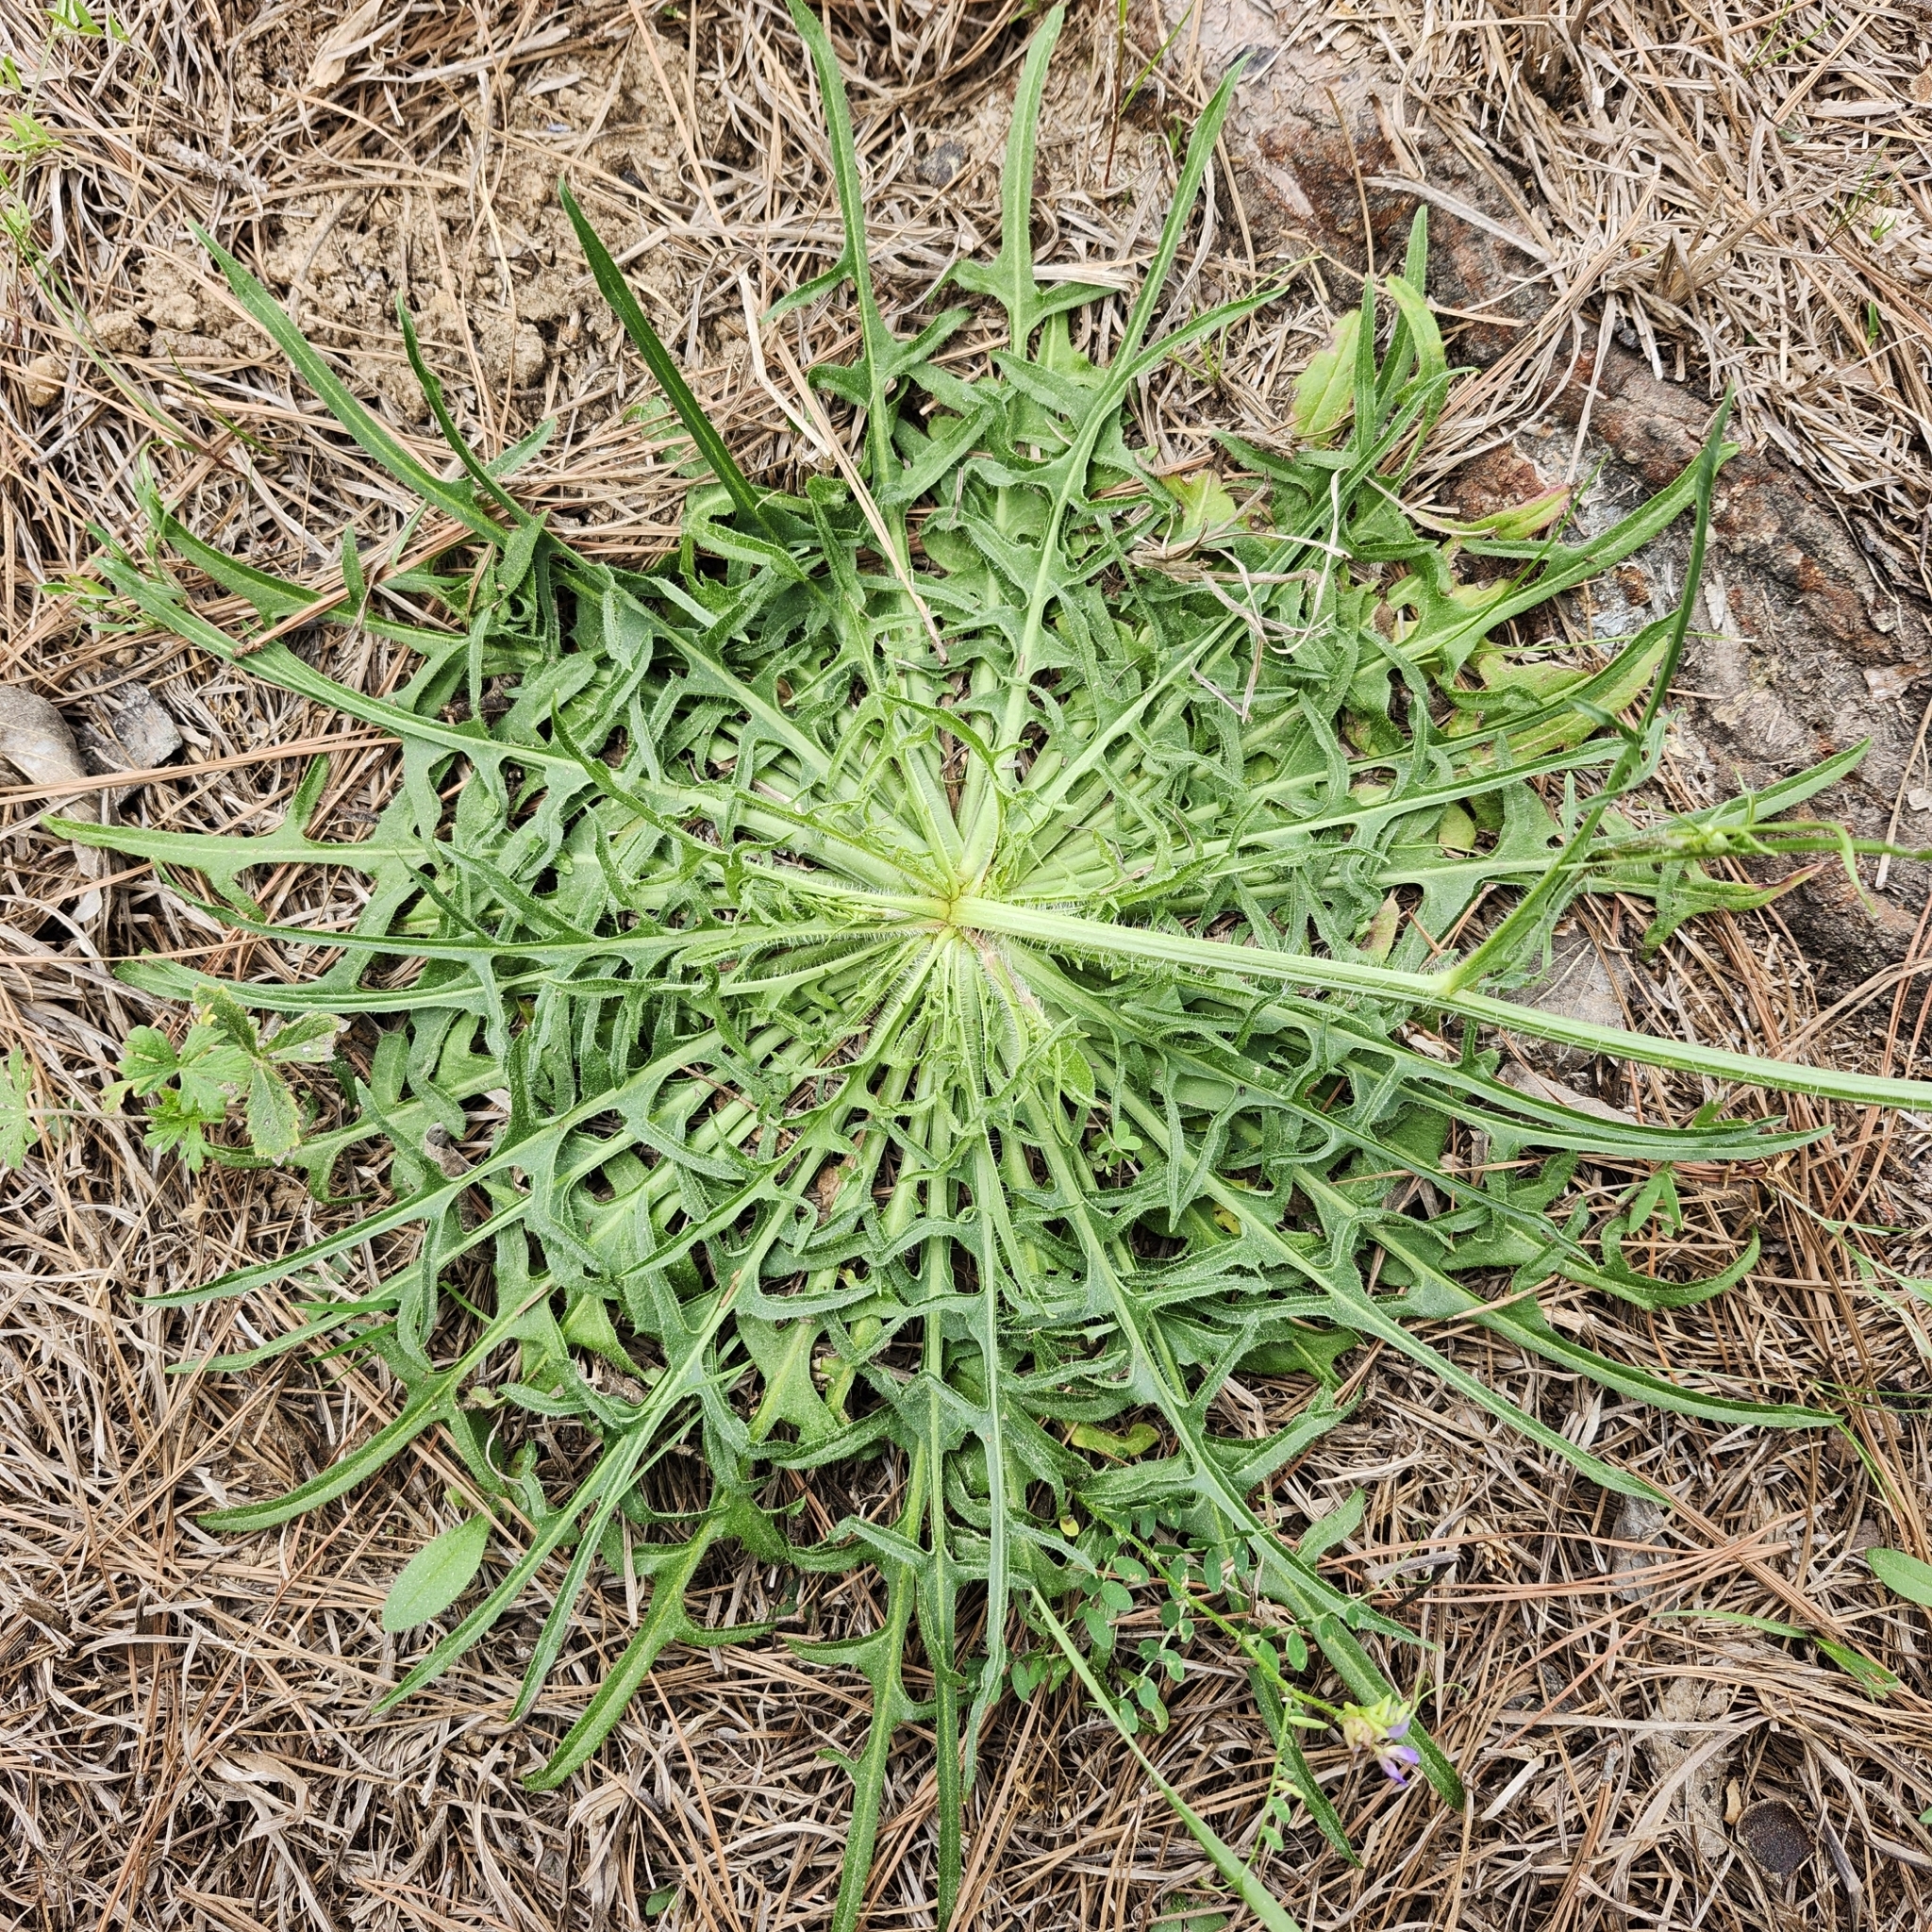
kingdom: Plantae
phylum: Tracheophyta
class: Magnoliopsida
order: Asterales
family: Asteraceae
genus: Hypochaeris
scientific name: Hypochaeris albiflora
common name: White flatweed
